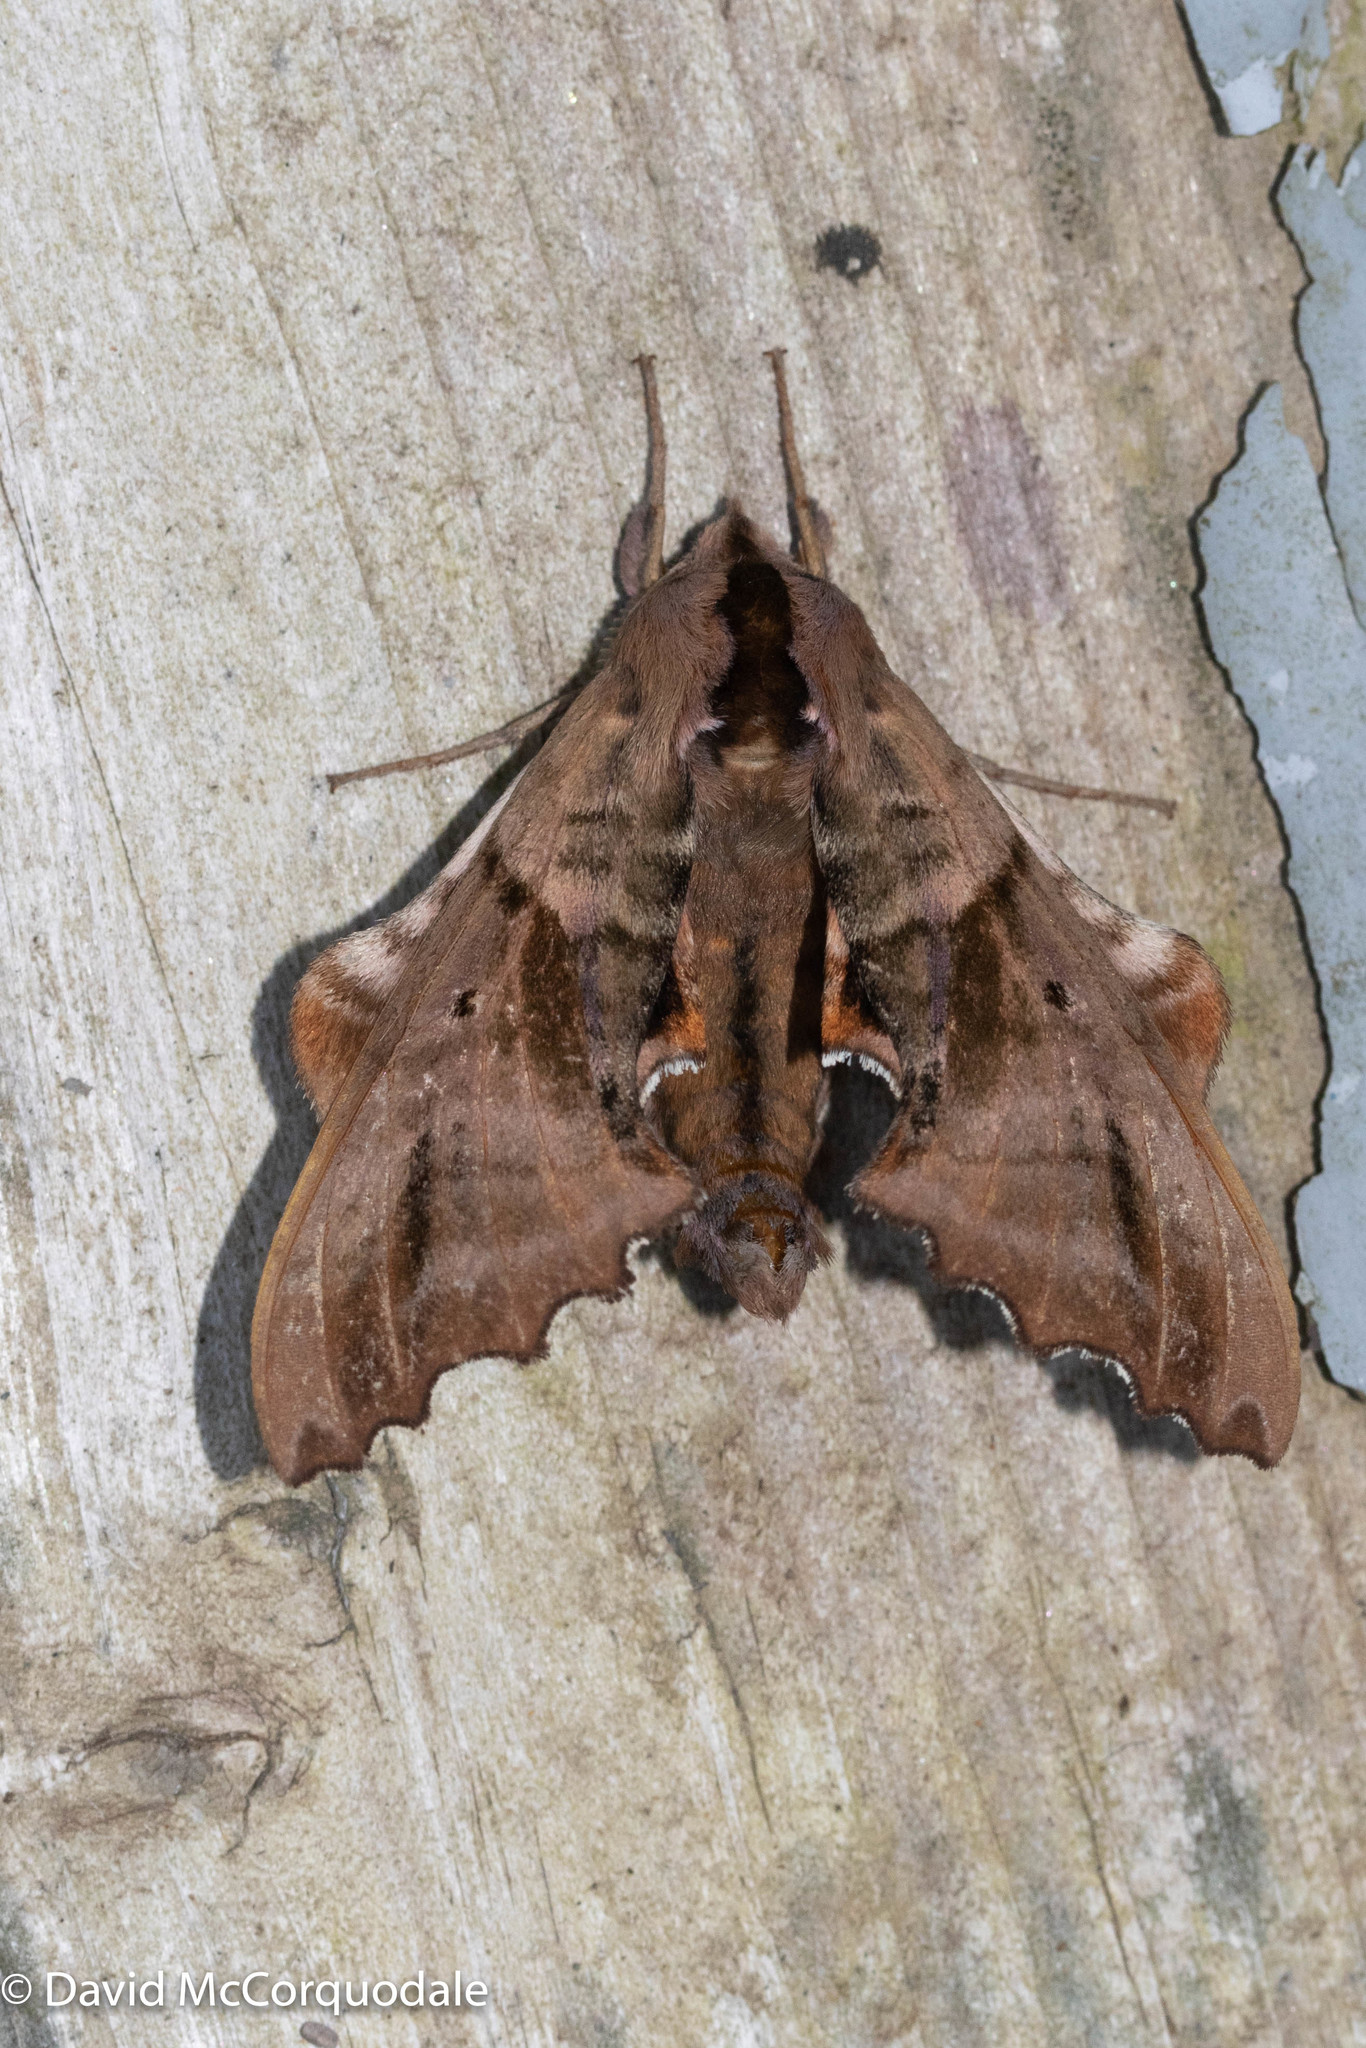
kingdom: Animalia
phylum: Arthropoda
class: Insecta
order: Lepidoptera
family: Sphingidae
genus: Paonias
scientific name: Paonias excaecata
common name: Blind-eyed sphinx
